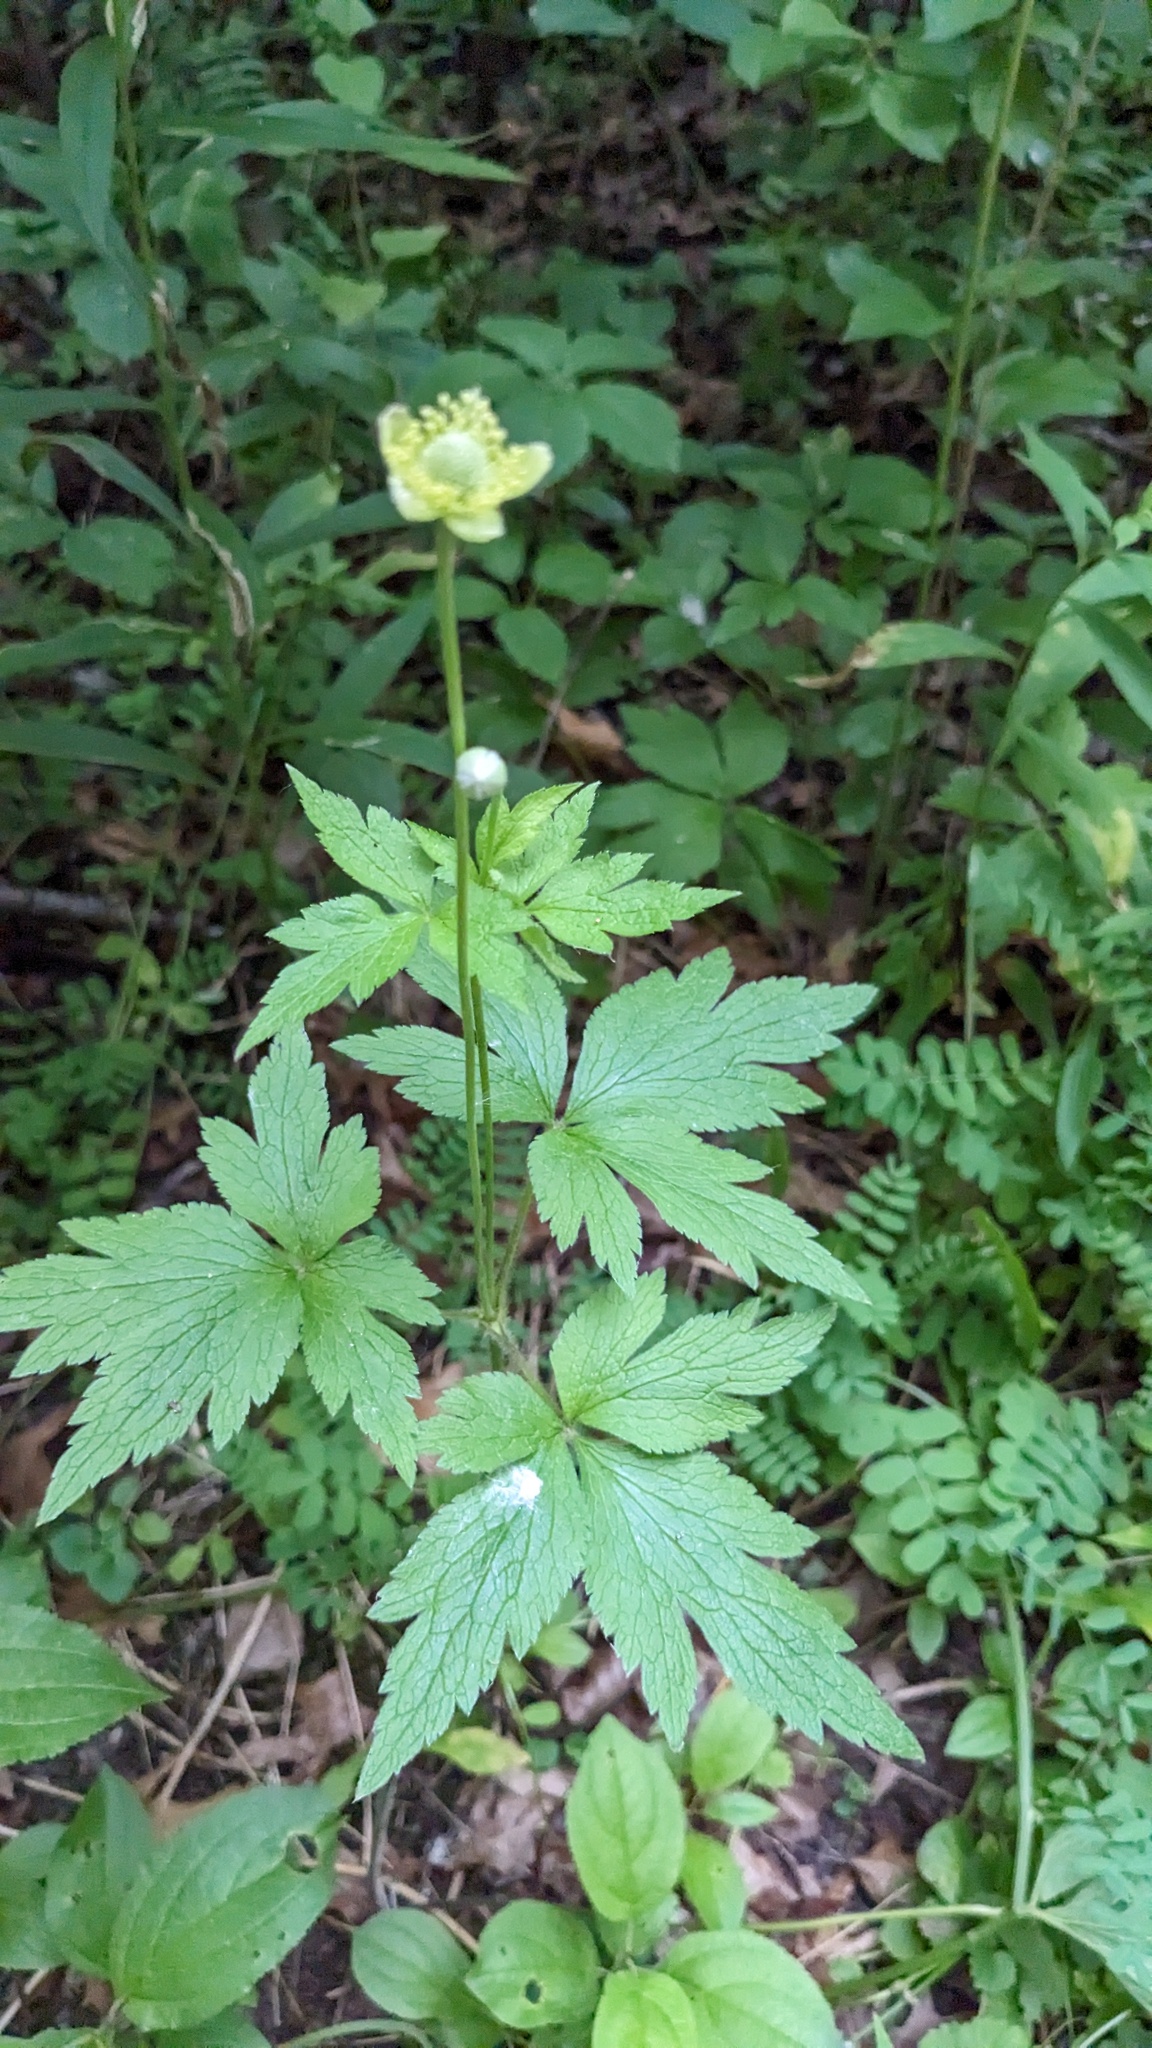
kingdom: Plantae
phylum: Tracheophyta
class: Magnoliopsida
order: Ranunculales
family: Ranunculaceae
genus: Anemone
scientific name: Anemone virginiana
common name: Tall anemone
